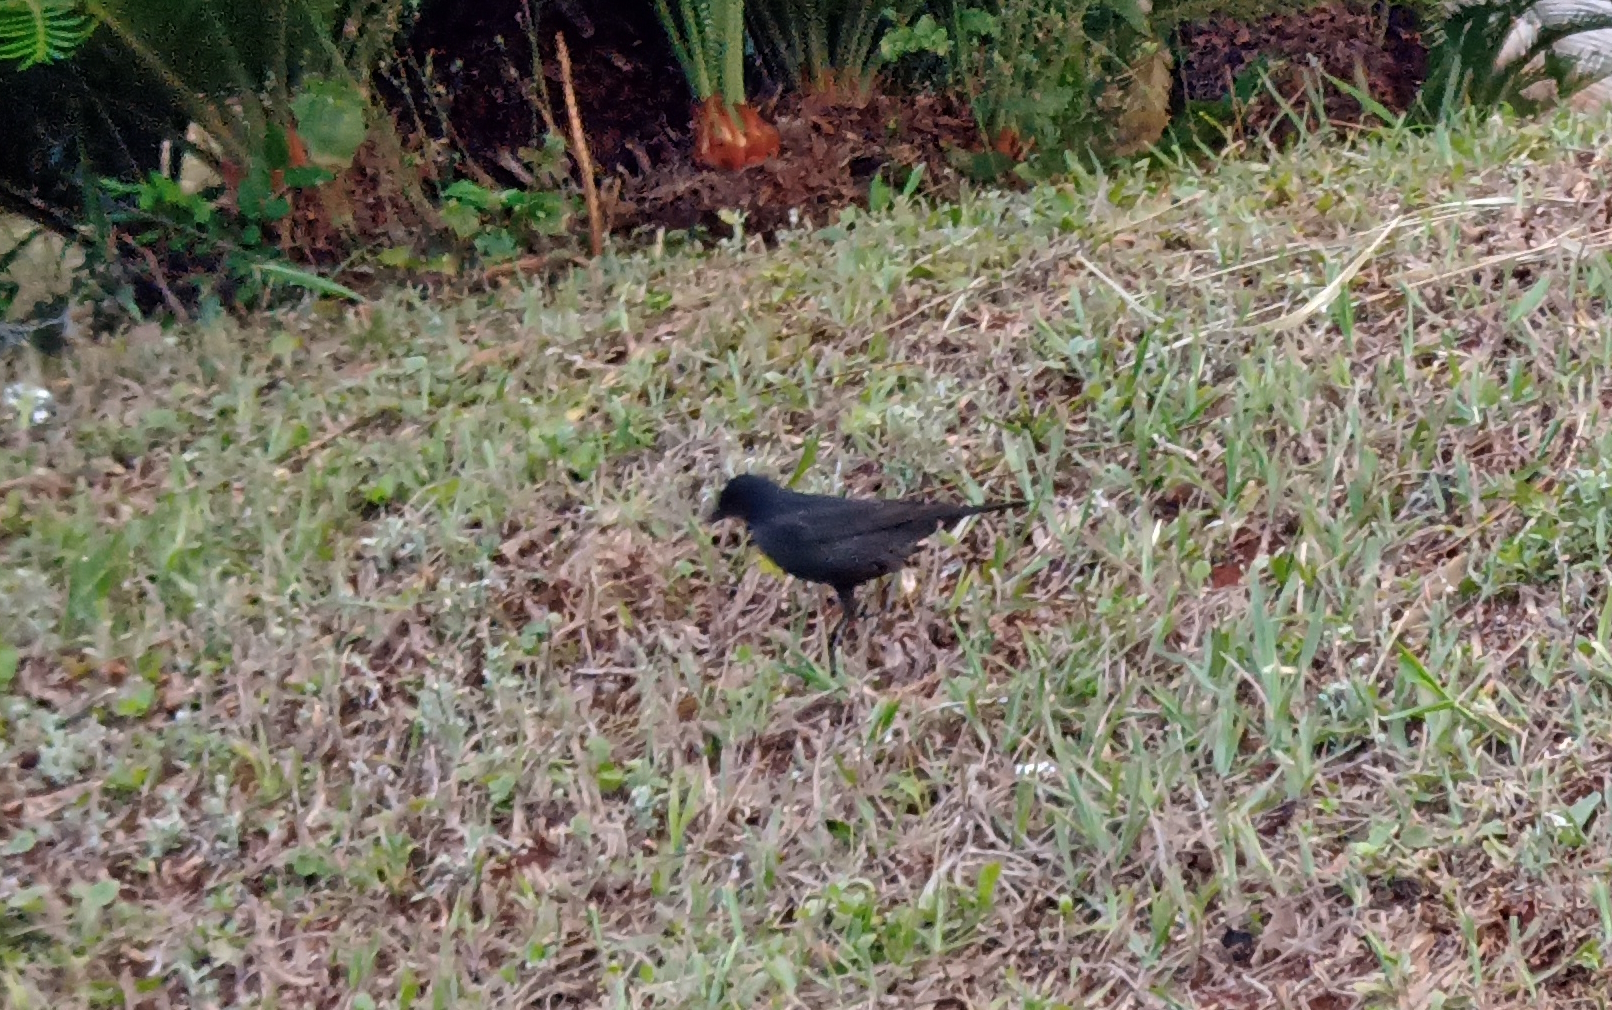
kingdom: Animalia
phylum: Chordata
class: Aves
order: Passeriformes
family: Icteridae
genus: Molothrus
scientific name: Molothrus bonariensis
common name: Shiny cowbird
